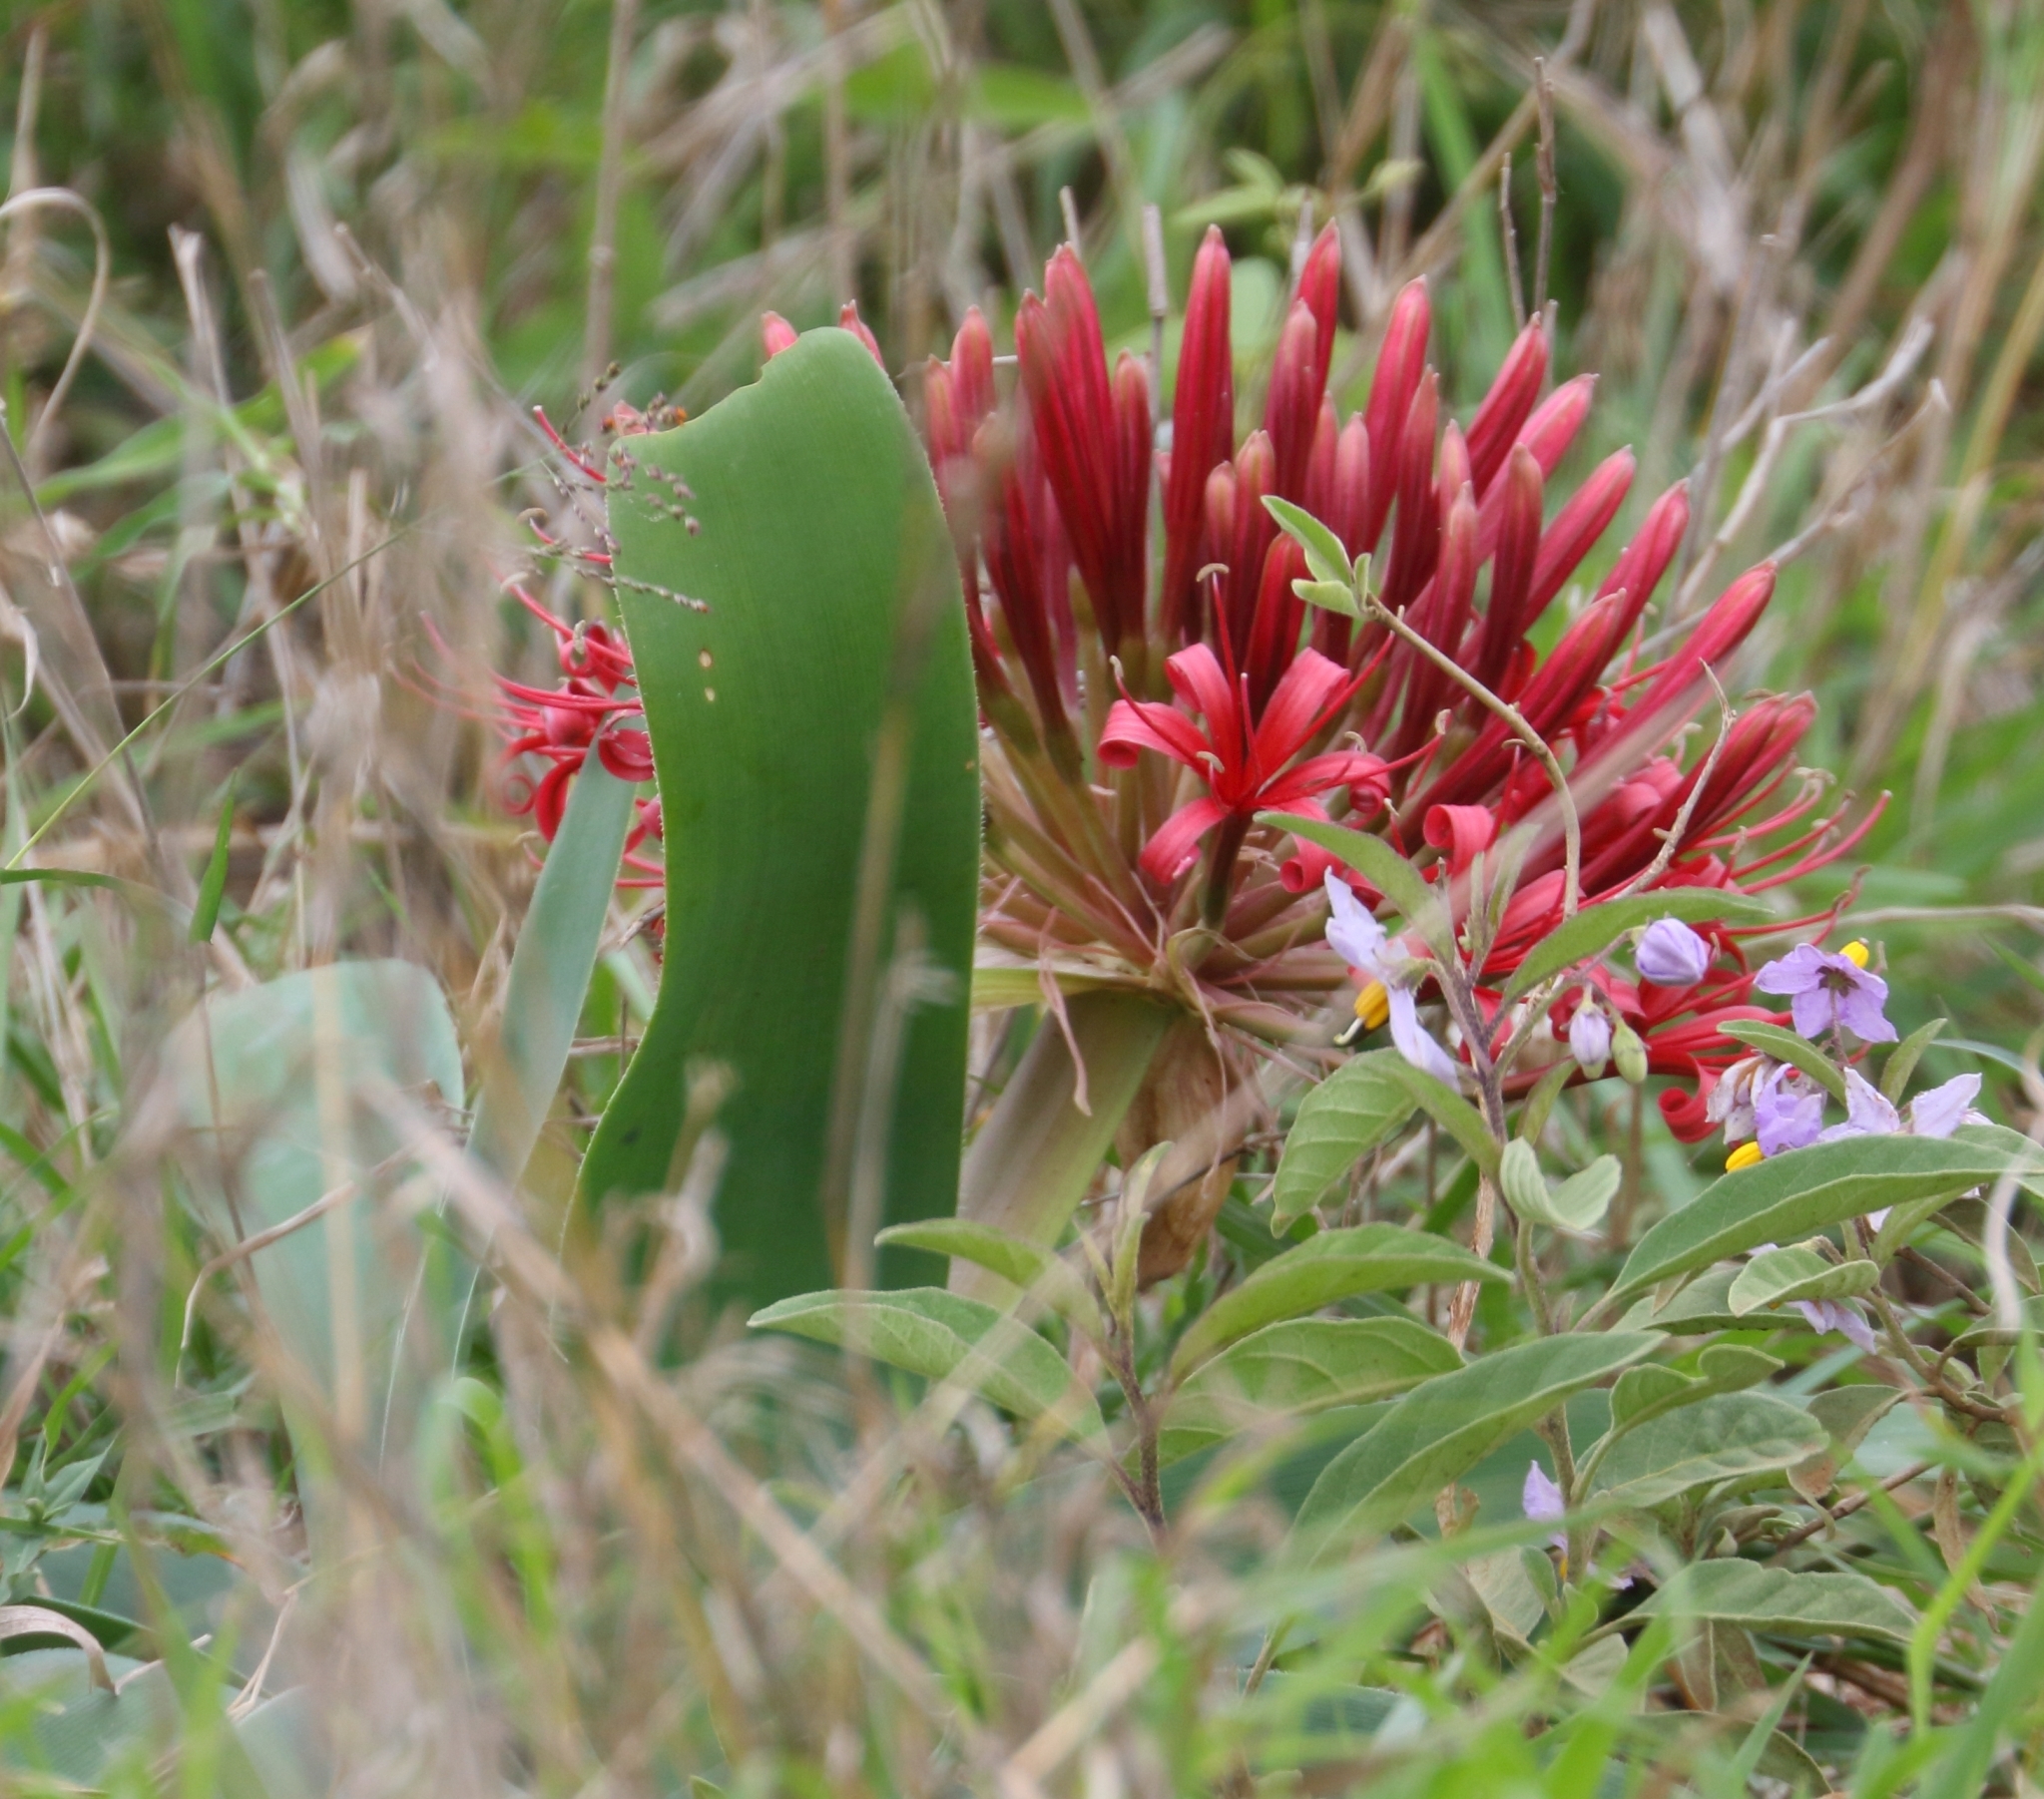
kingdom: Plantae
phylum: Tracheophyta
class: Liliopsida
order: Asparagales
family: Amaryllidaceae
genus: Ammocharis
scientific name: Ammocharis coranica
